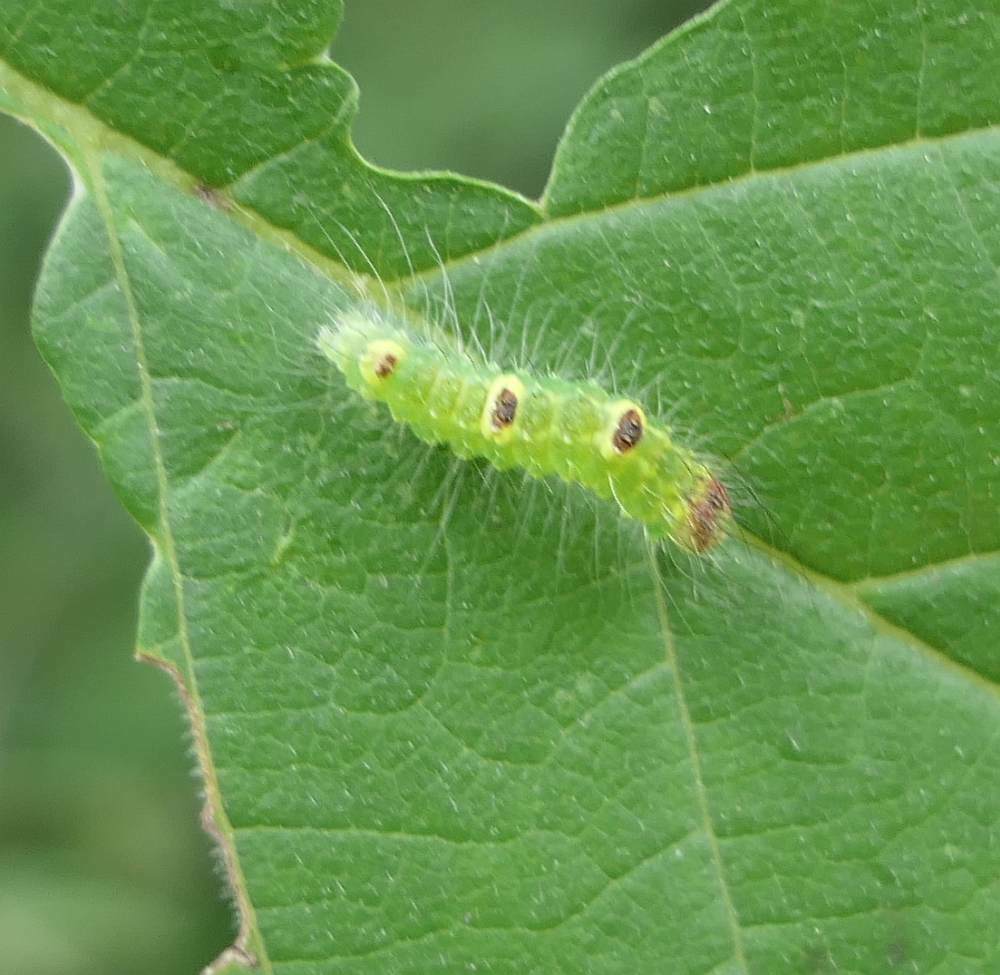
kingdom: Animalia
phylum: Arthropoda
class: Insecta
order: Lepidoptera
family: Noctuidae
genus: Acronicta
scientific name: Acronicta morula
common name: Ochre dagger
